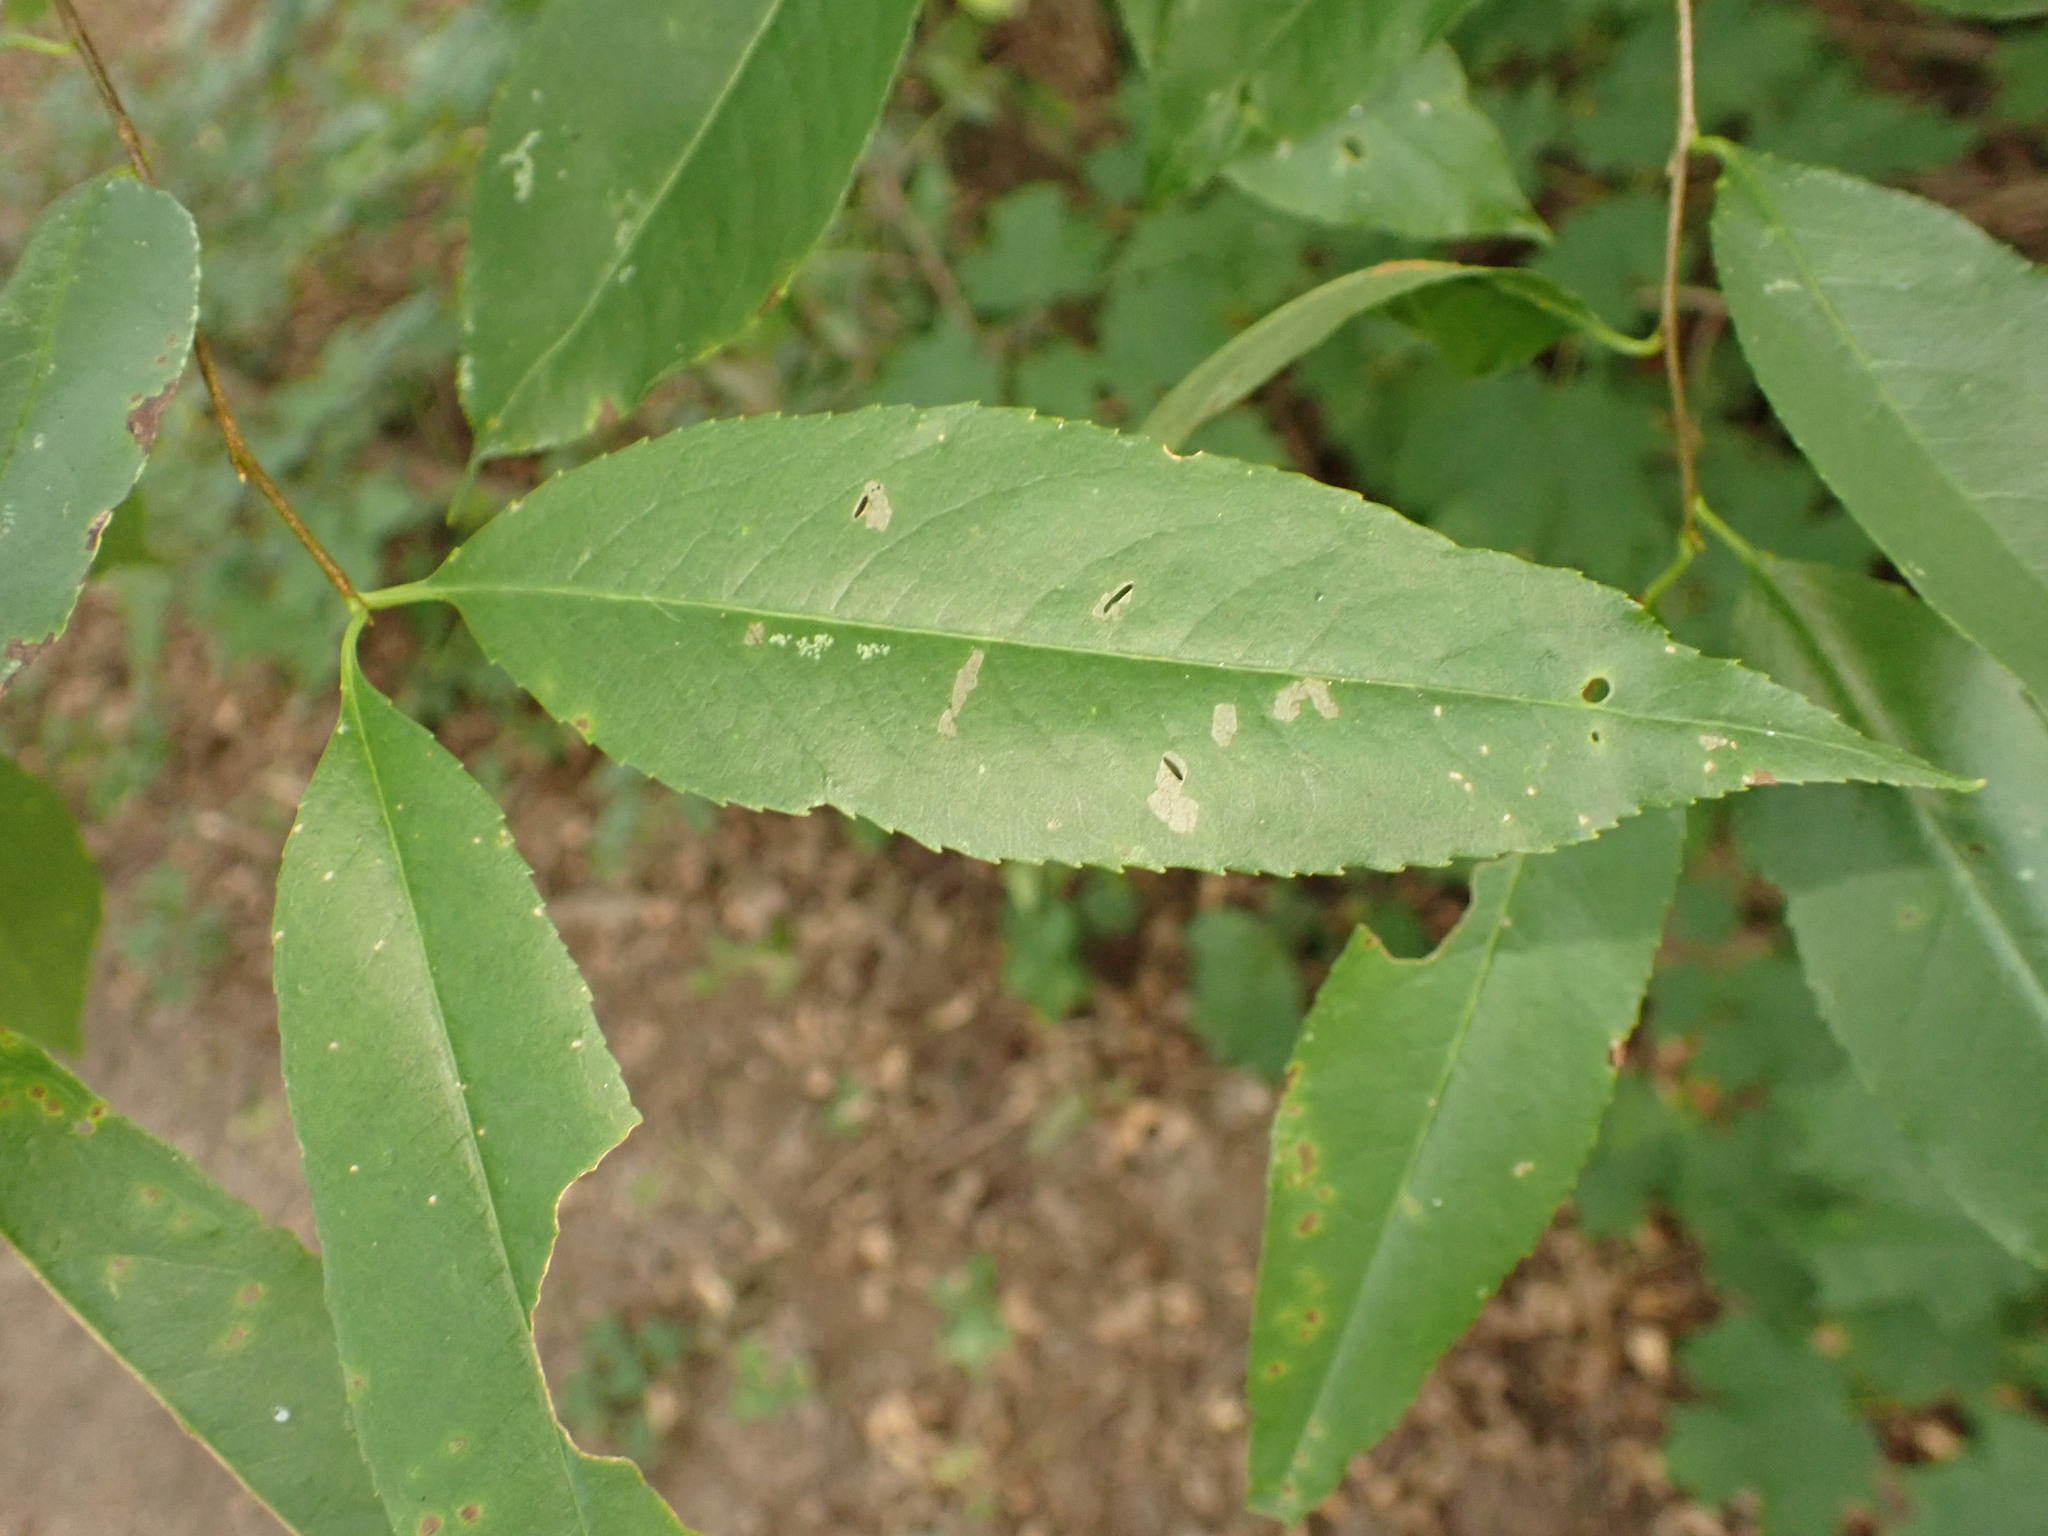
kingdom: Plantae
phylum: Tracheophyta
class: Magnoliopsida
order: Rosales
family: Rosaceae
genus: Prunus
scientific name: Prunus serotina
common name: Black cherry
